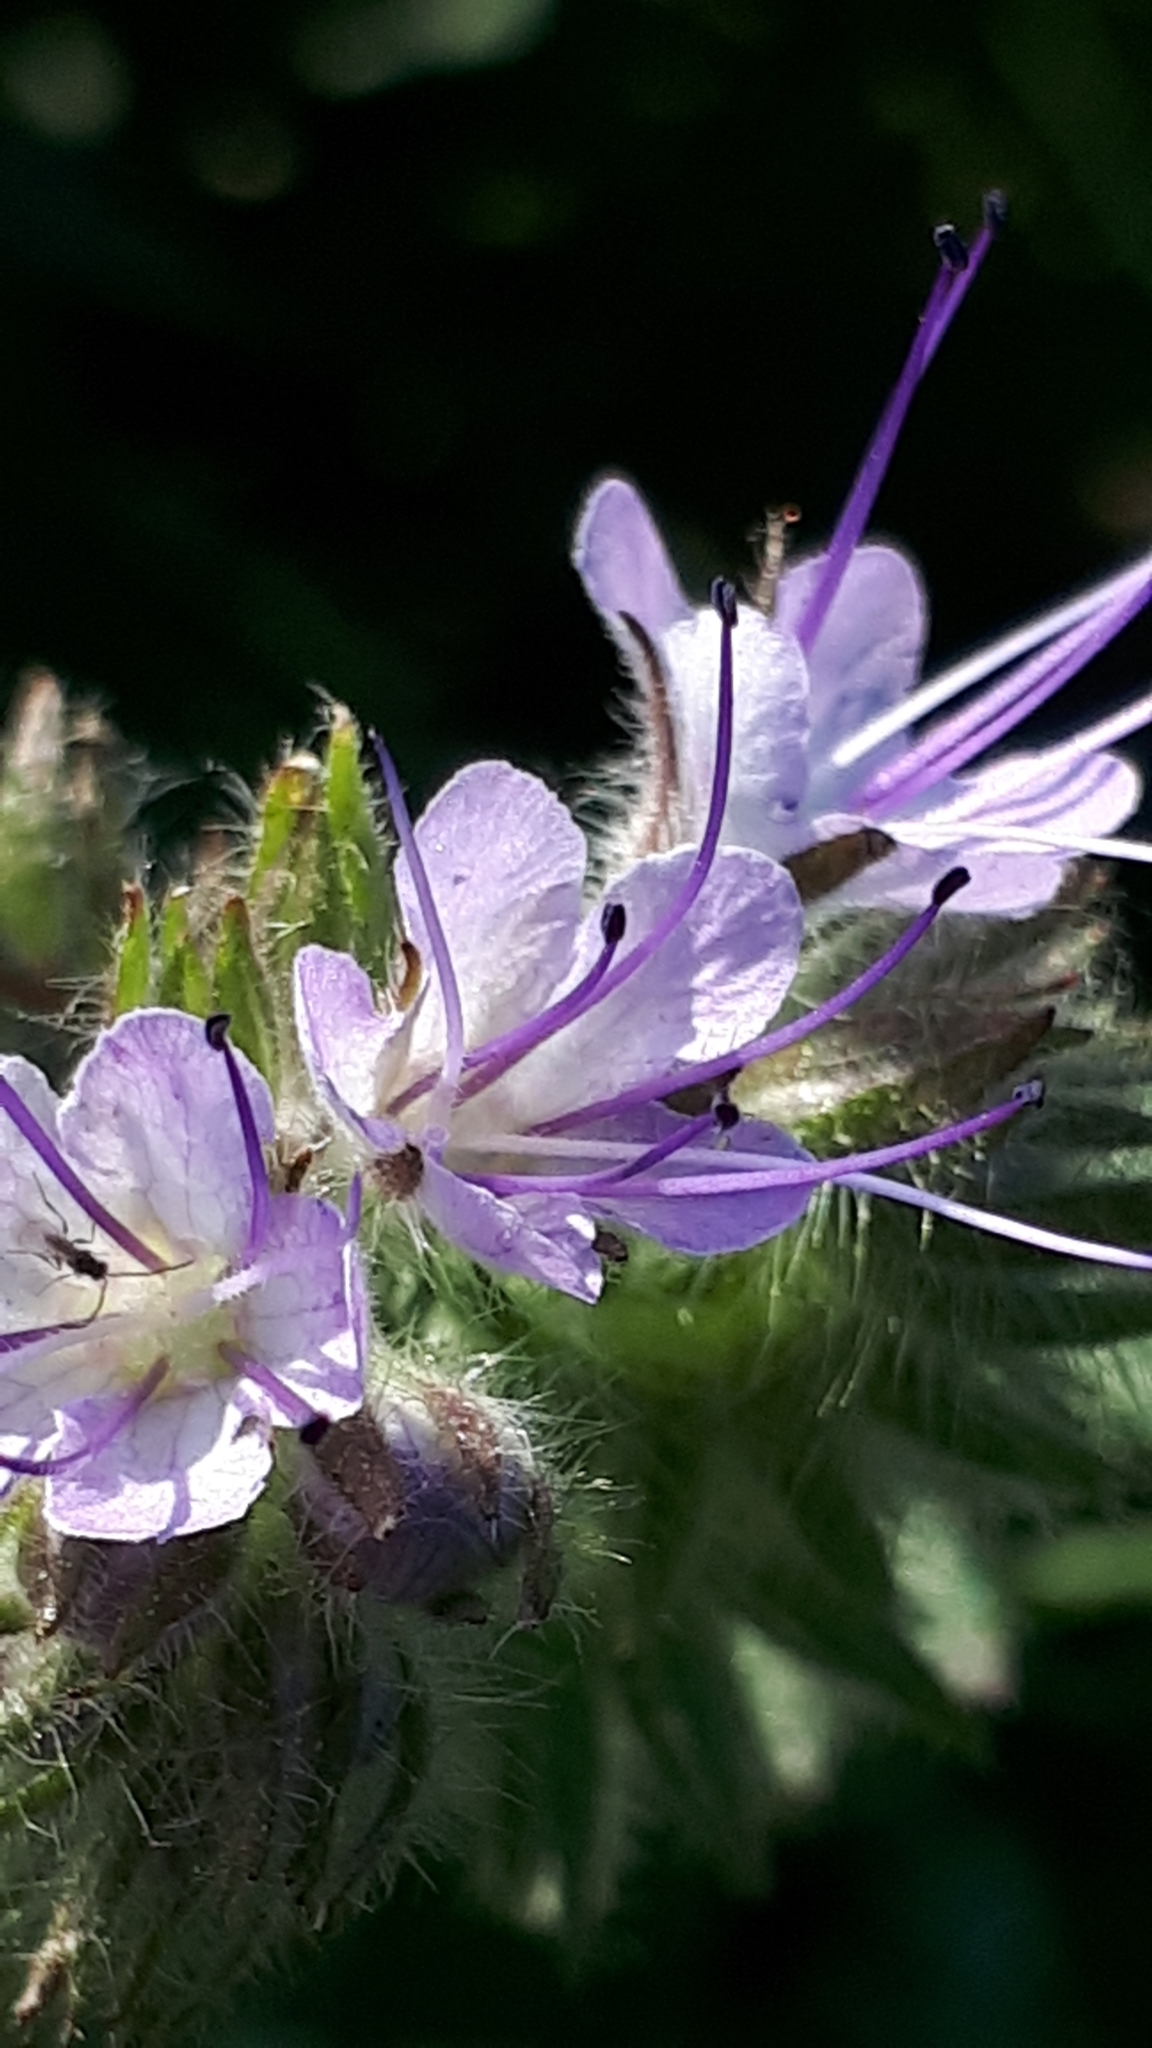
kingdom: Plantae
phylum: Tracheophyta
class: Magnoliopsida
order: Boraginales
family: Hydrophyllaceae
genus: Phacelia
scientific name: Phacelia tanacetifolia
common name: Phacelia
